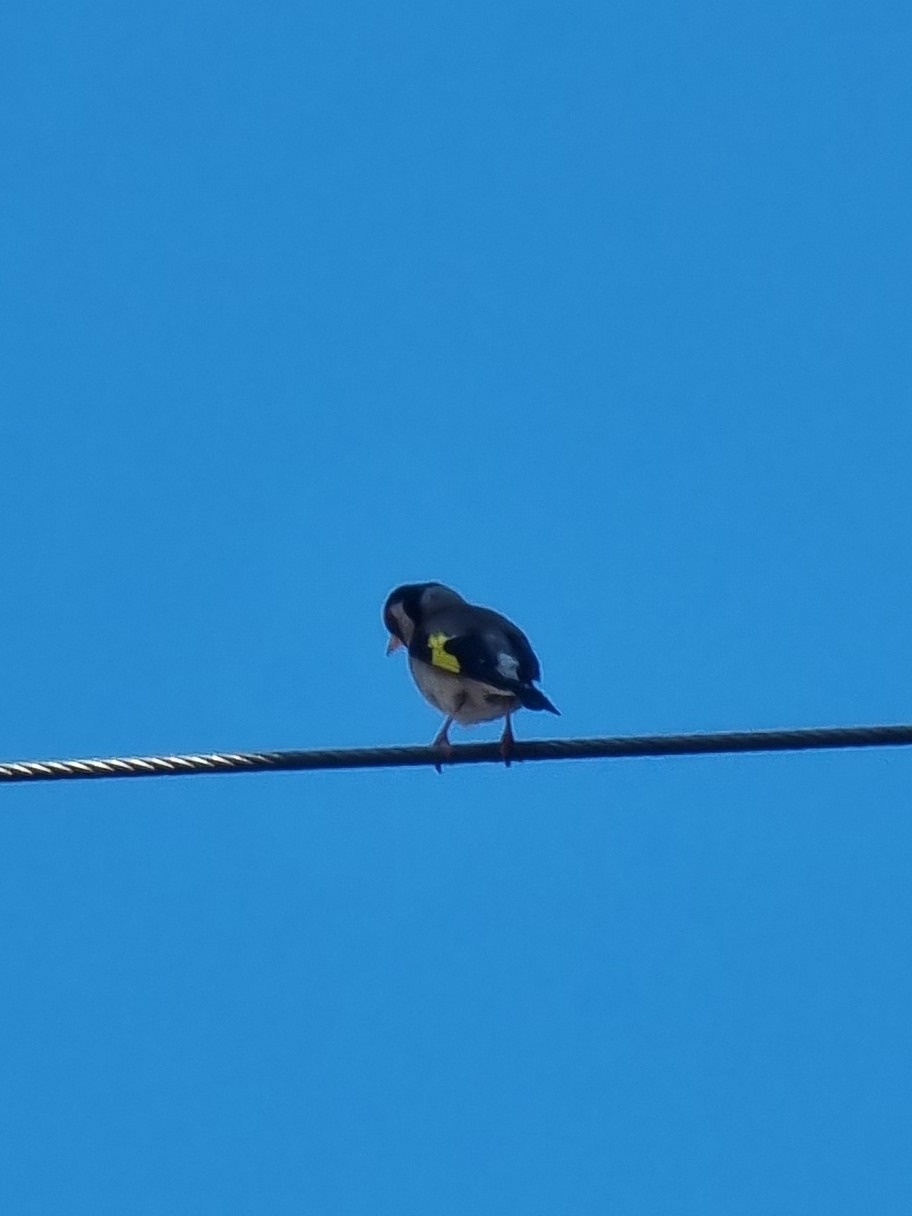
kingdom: Animalia
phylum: Chordata
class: Aves
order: Passeriformes
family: Fringillidae
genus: Carduelis
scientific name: Carduelis carduelis
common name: European goldfinch
